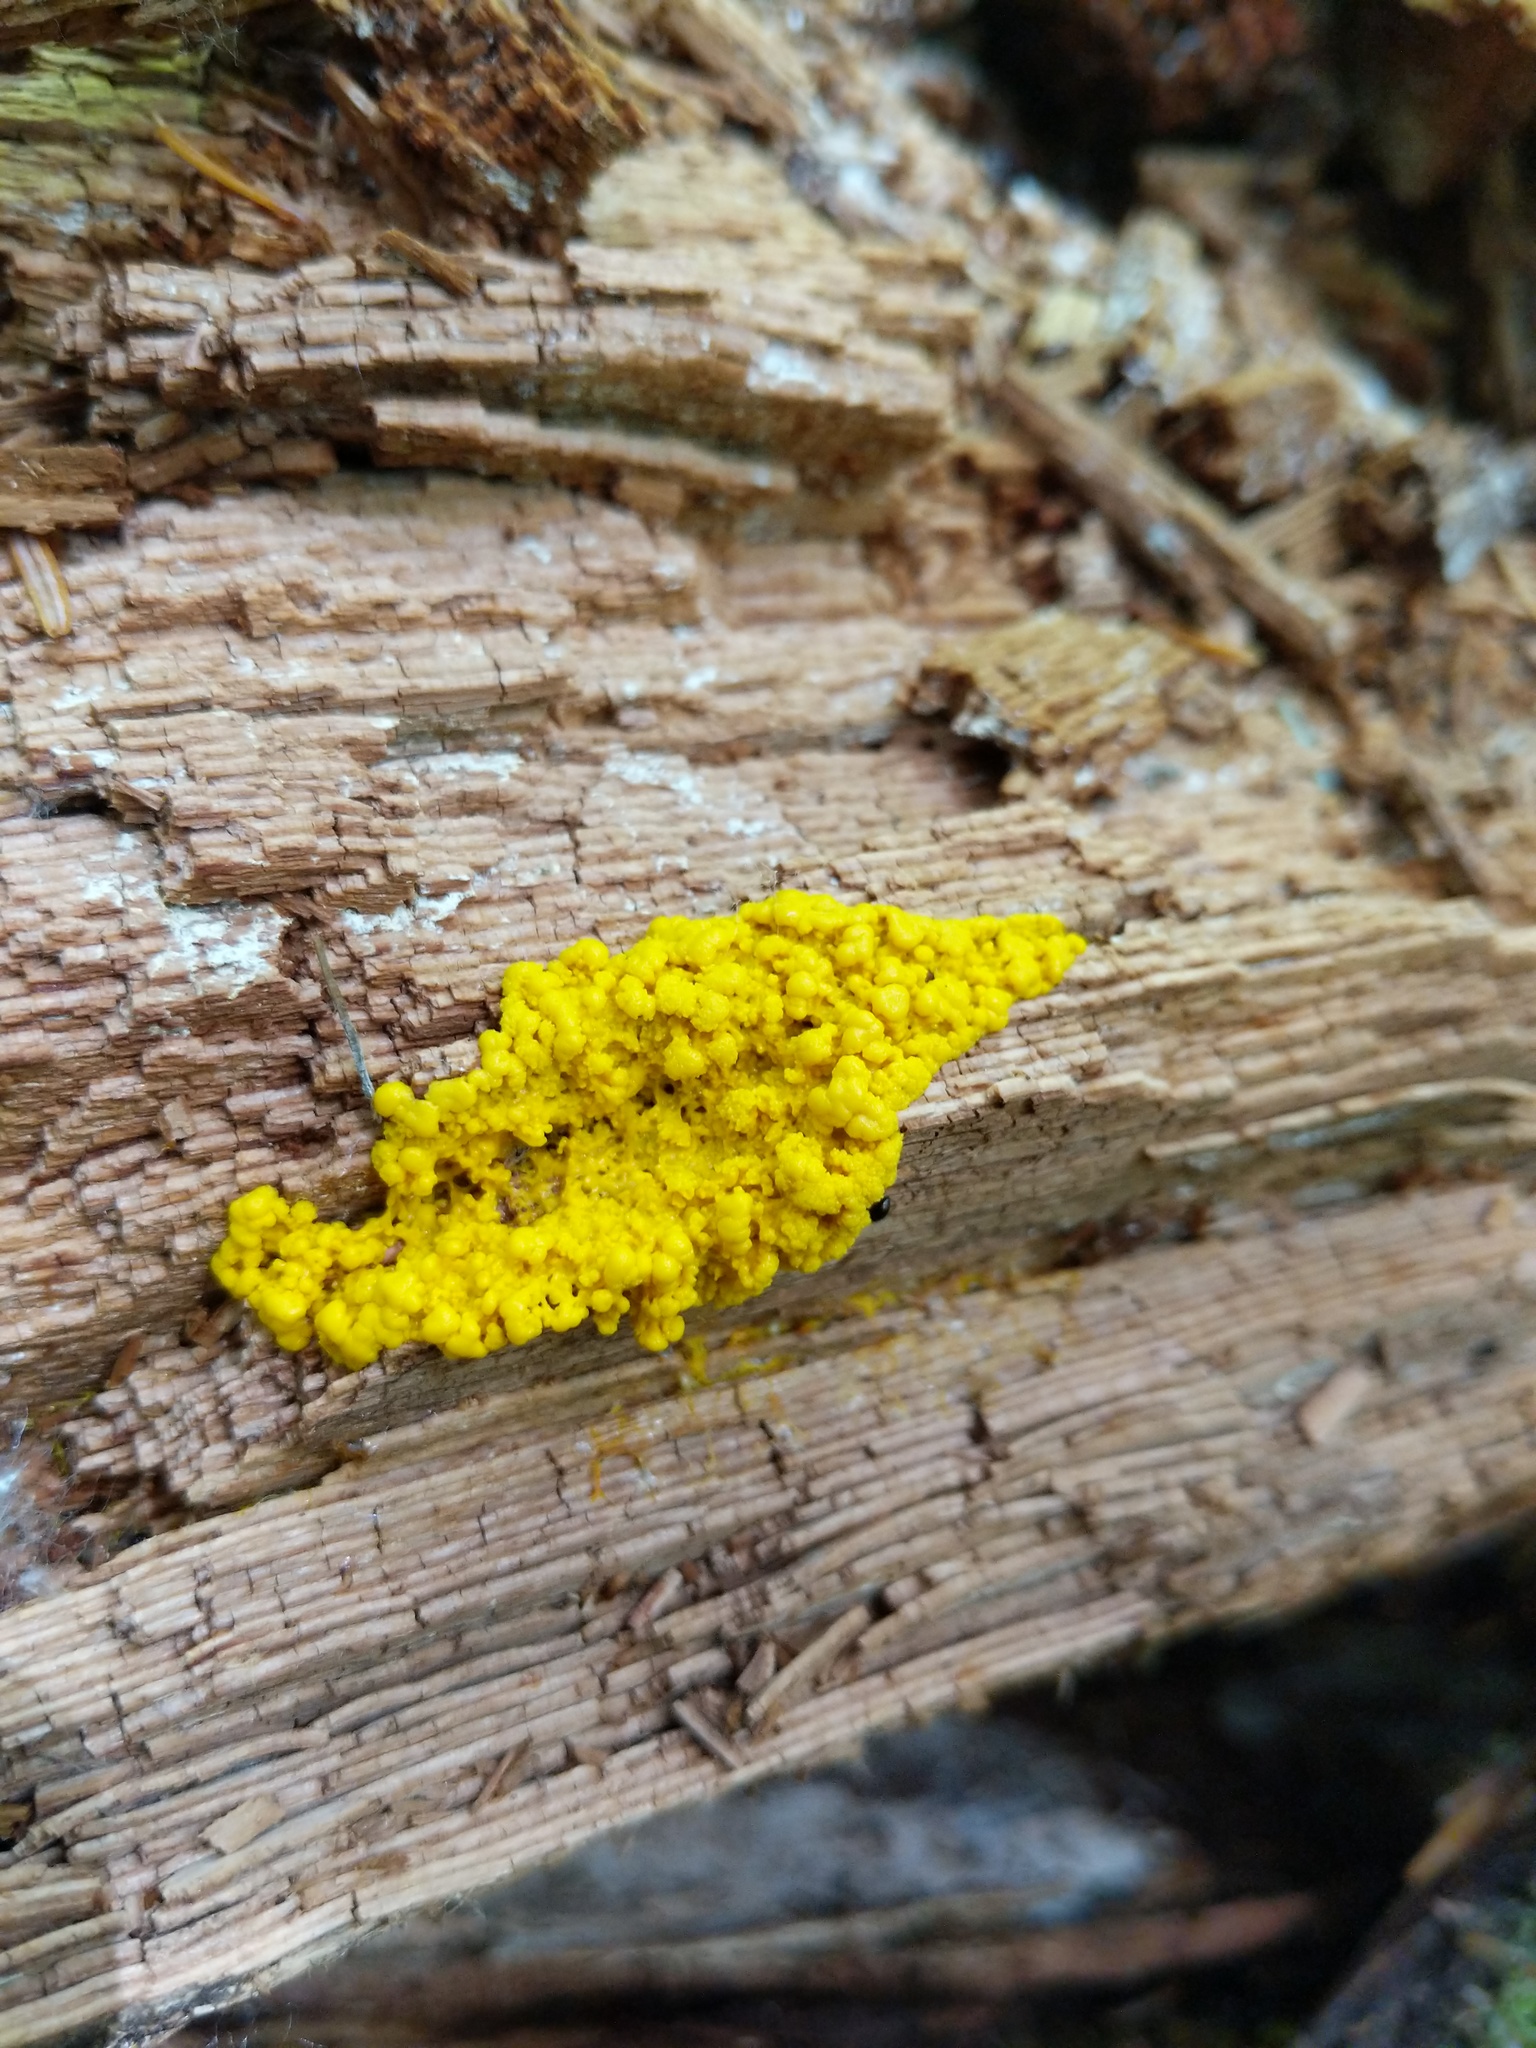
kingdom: Protozoa
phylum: Mycetozoa
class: Myxomycetes
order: Physarales
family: Physaraceae
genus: Fuligo
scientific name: Fuligo septica
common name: Dog vomit slime mold
